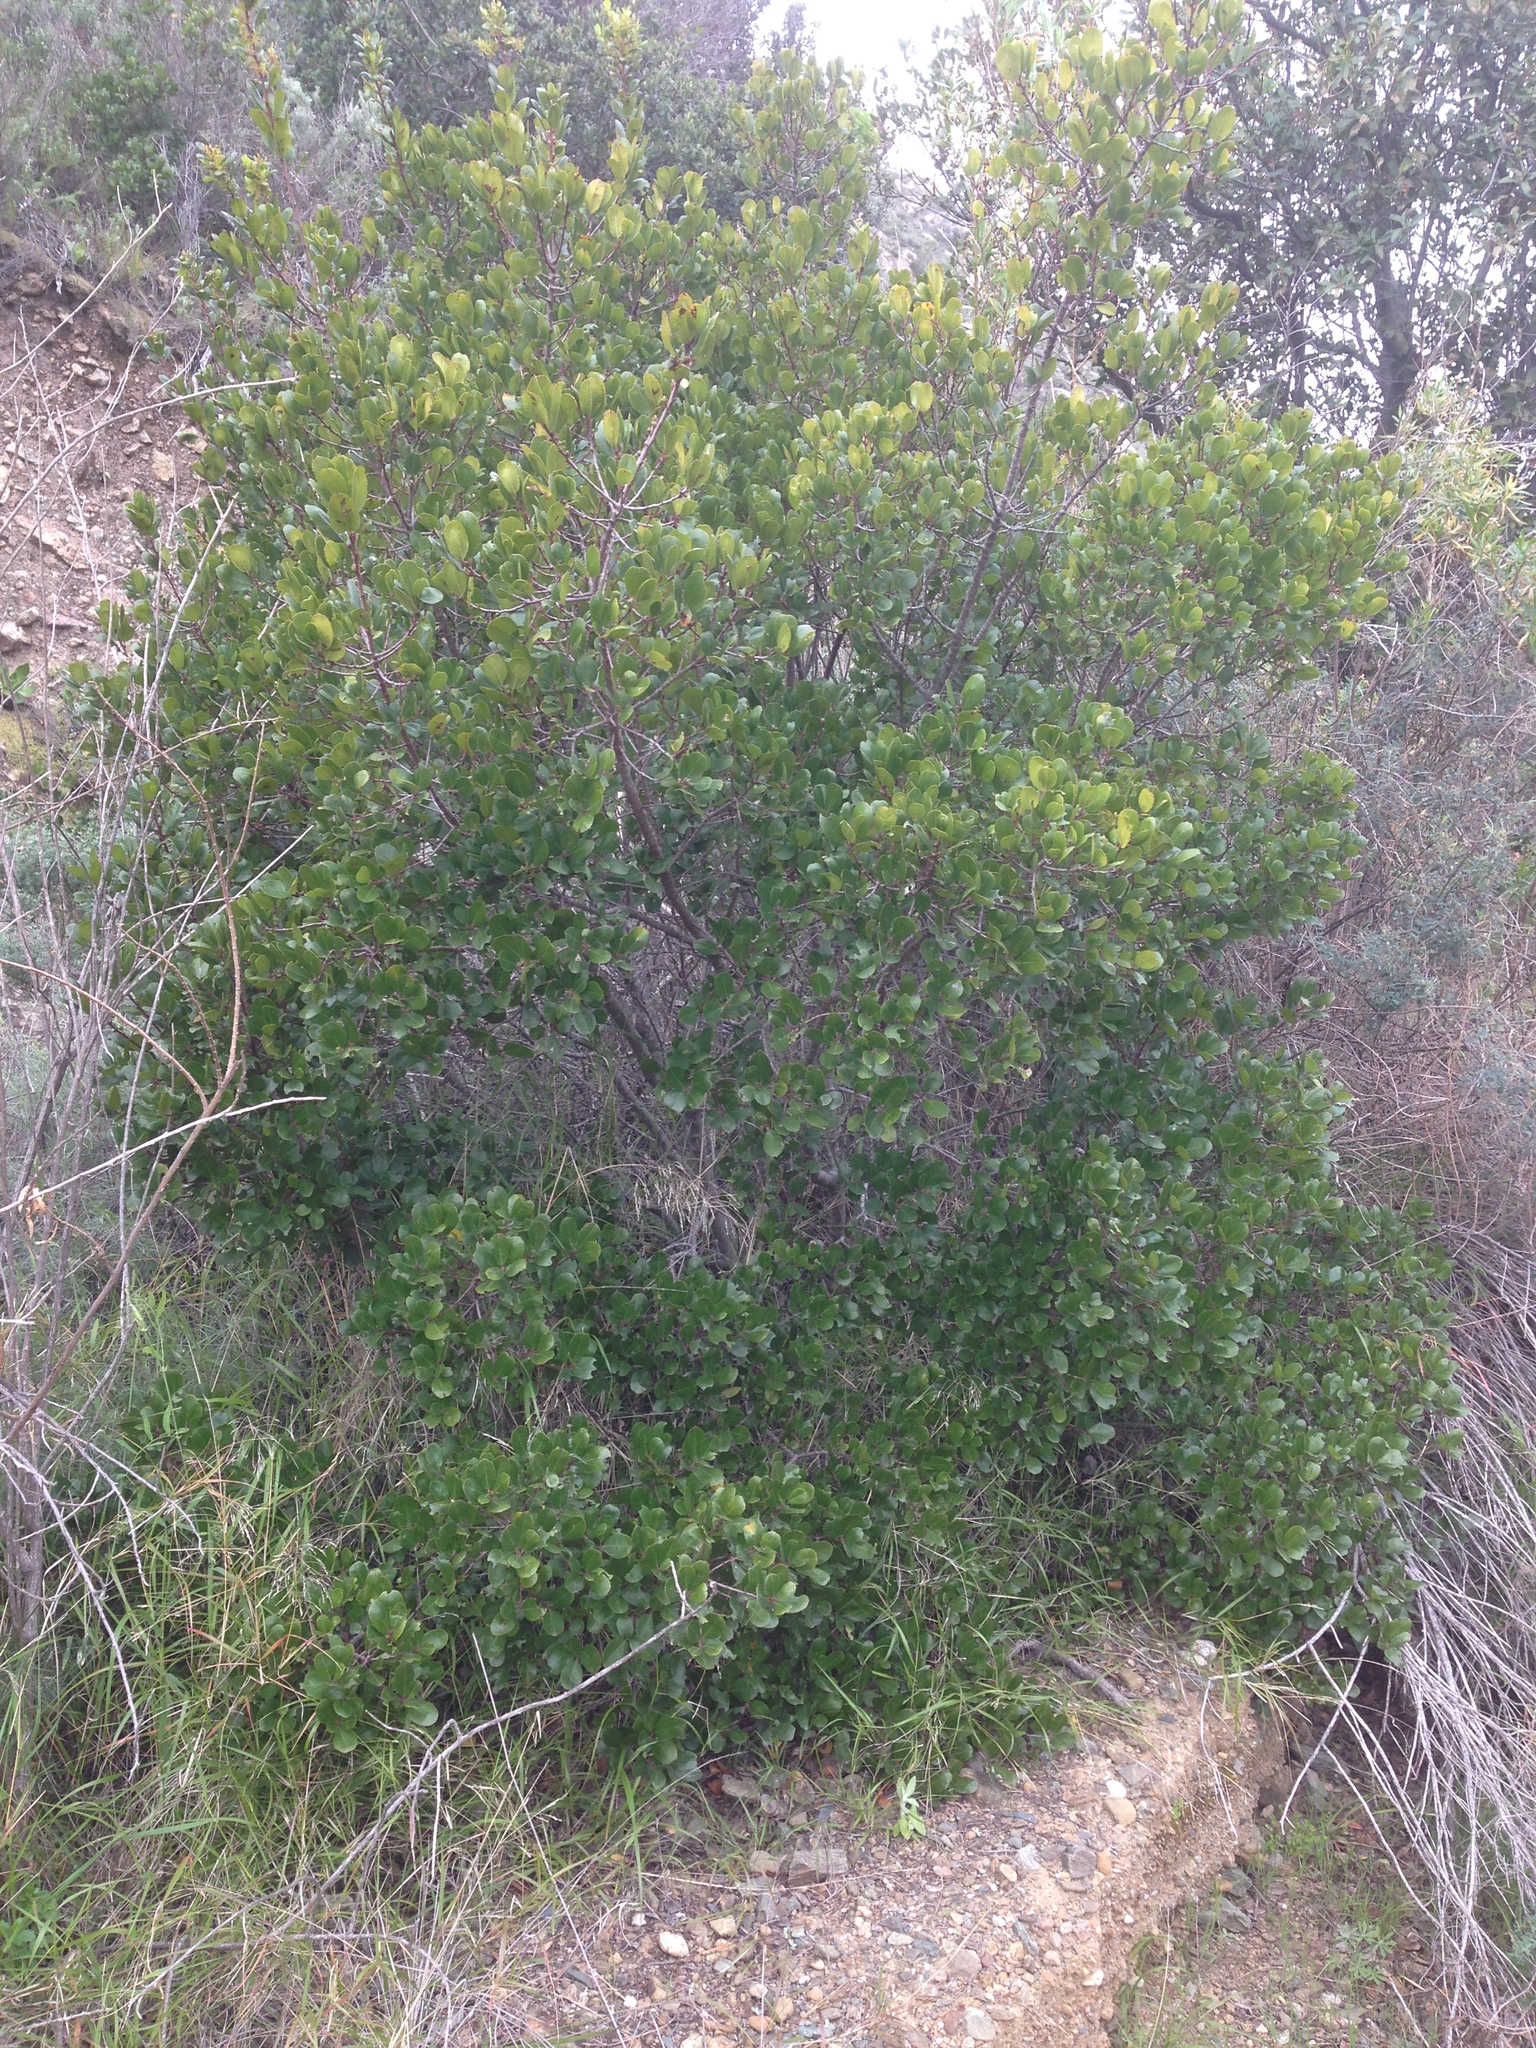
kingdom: Plantae
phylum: Tracheophyta
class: Magnoliopsida
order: Rosales
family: Rhamnaceae
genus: Endotropis
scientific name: Endotropis crocea
